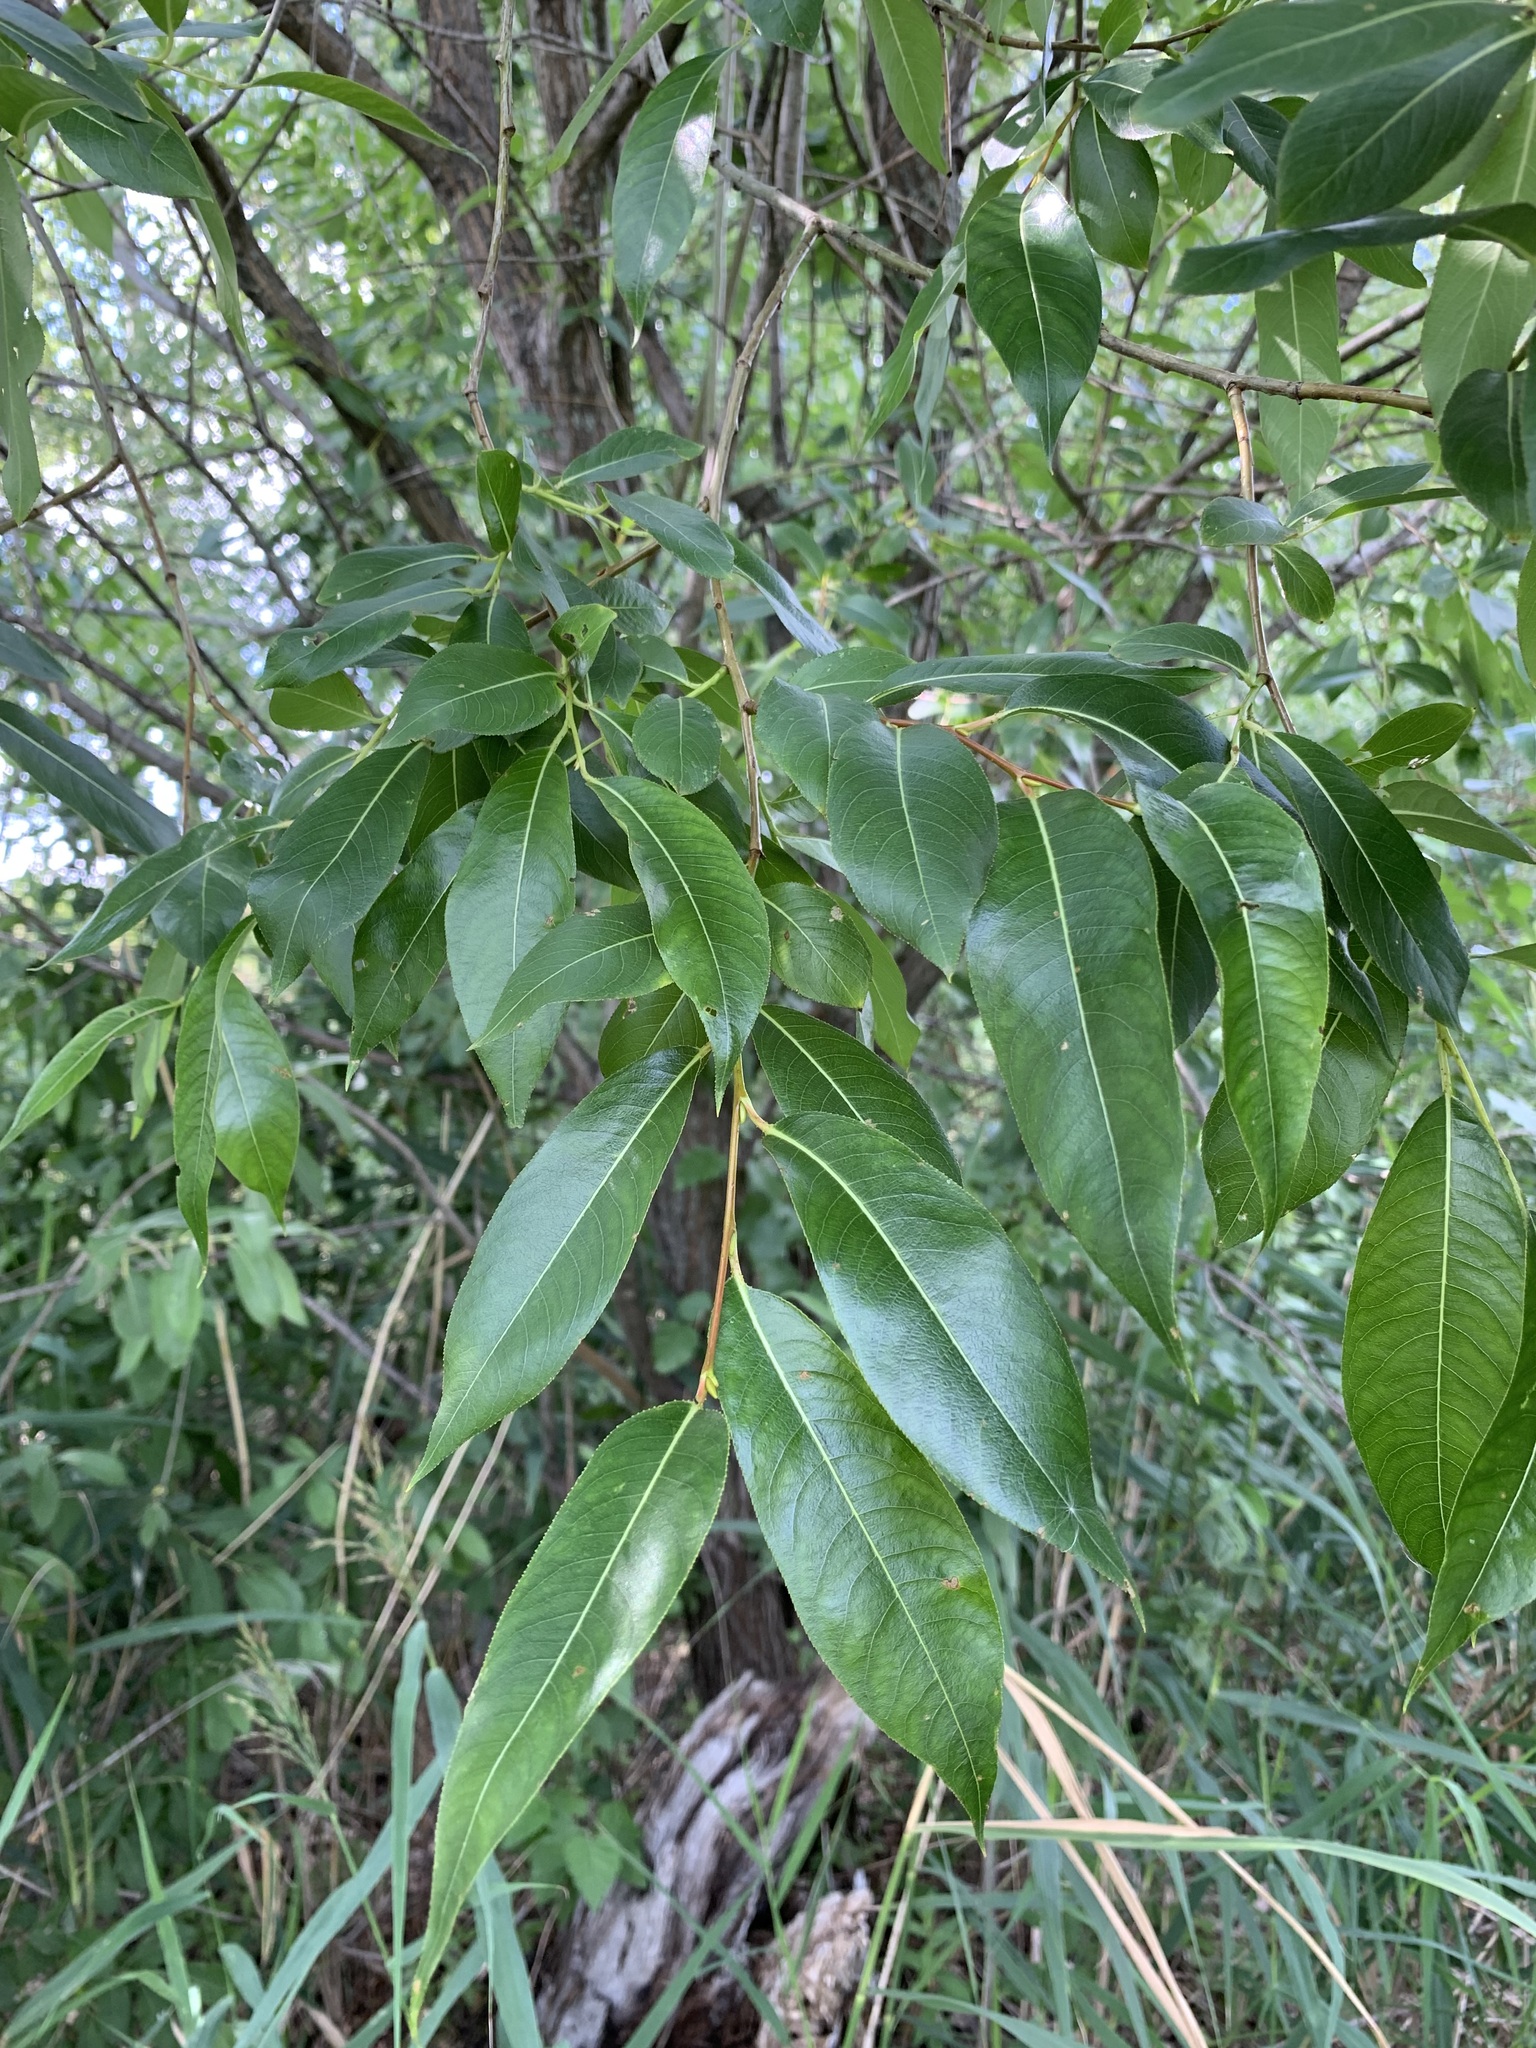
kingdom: Plantae
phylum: Tracheophyta
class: Magnoliopsida
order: Malpighiales
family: Salicaceae
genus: Salix
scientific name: Salix pentandra
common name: Bay willow
